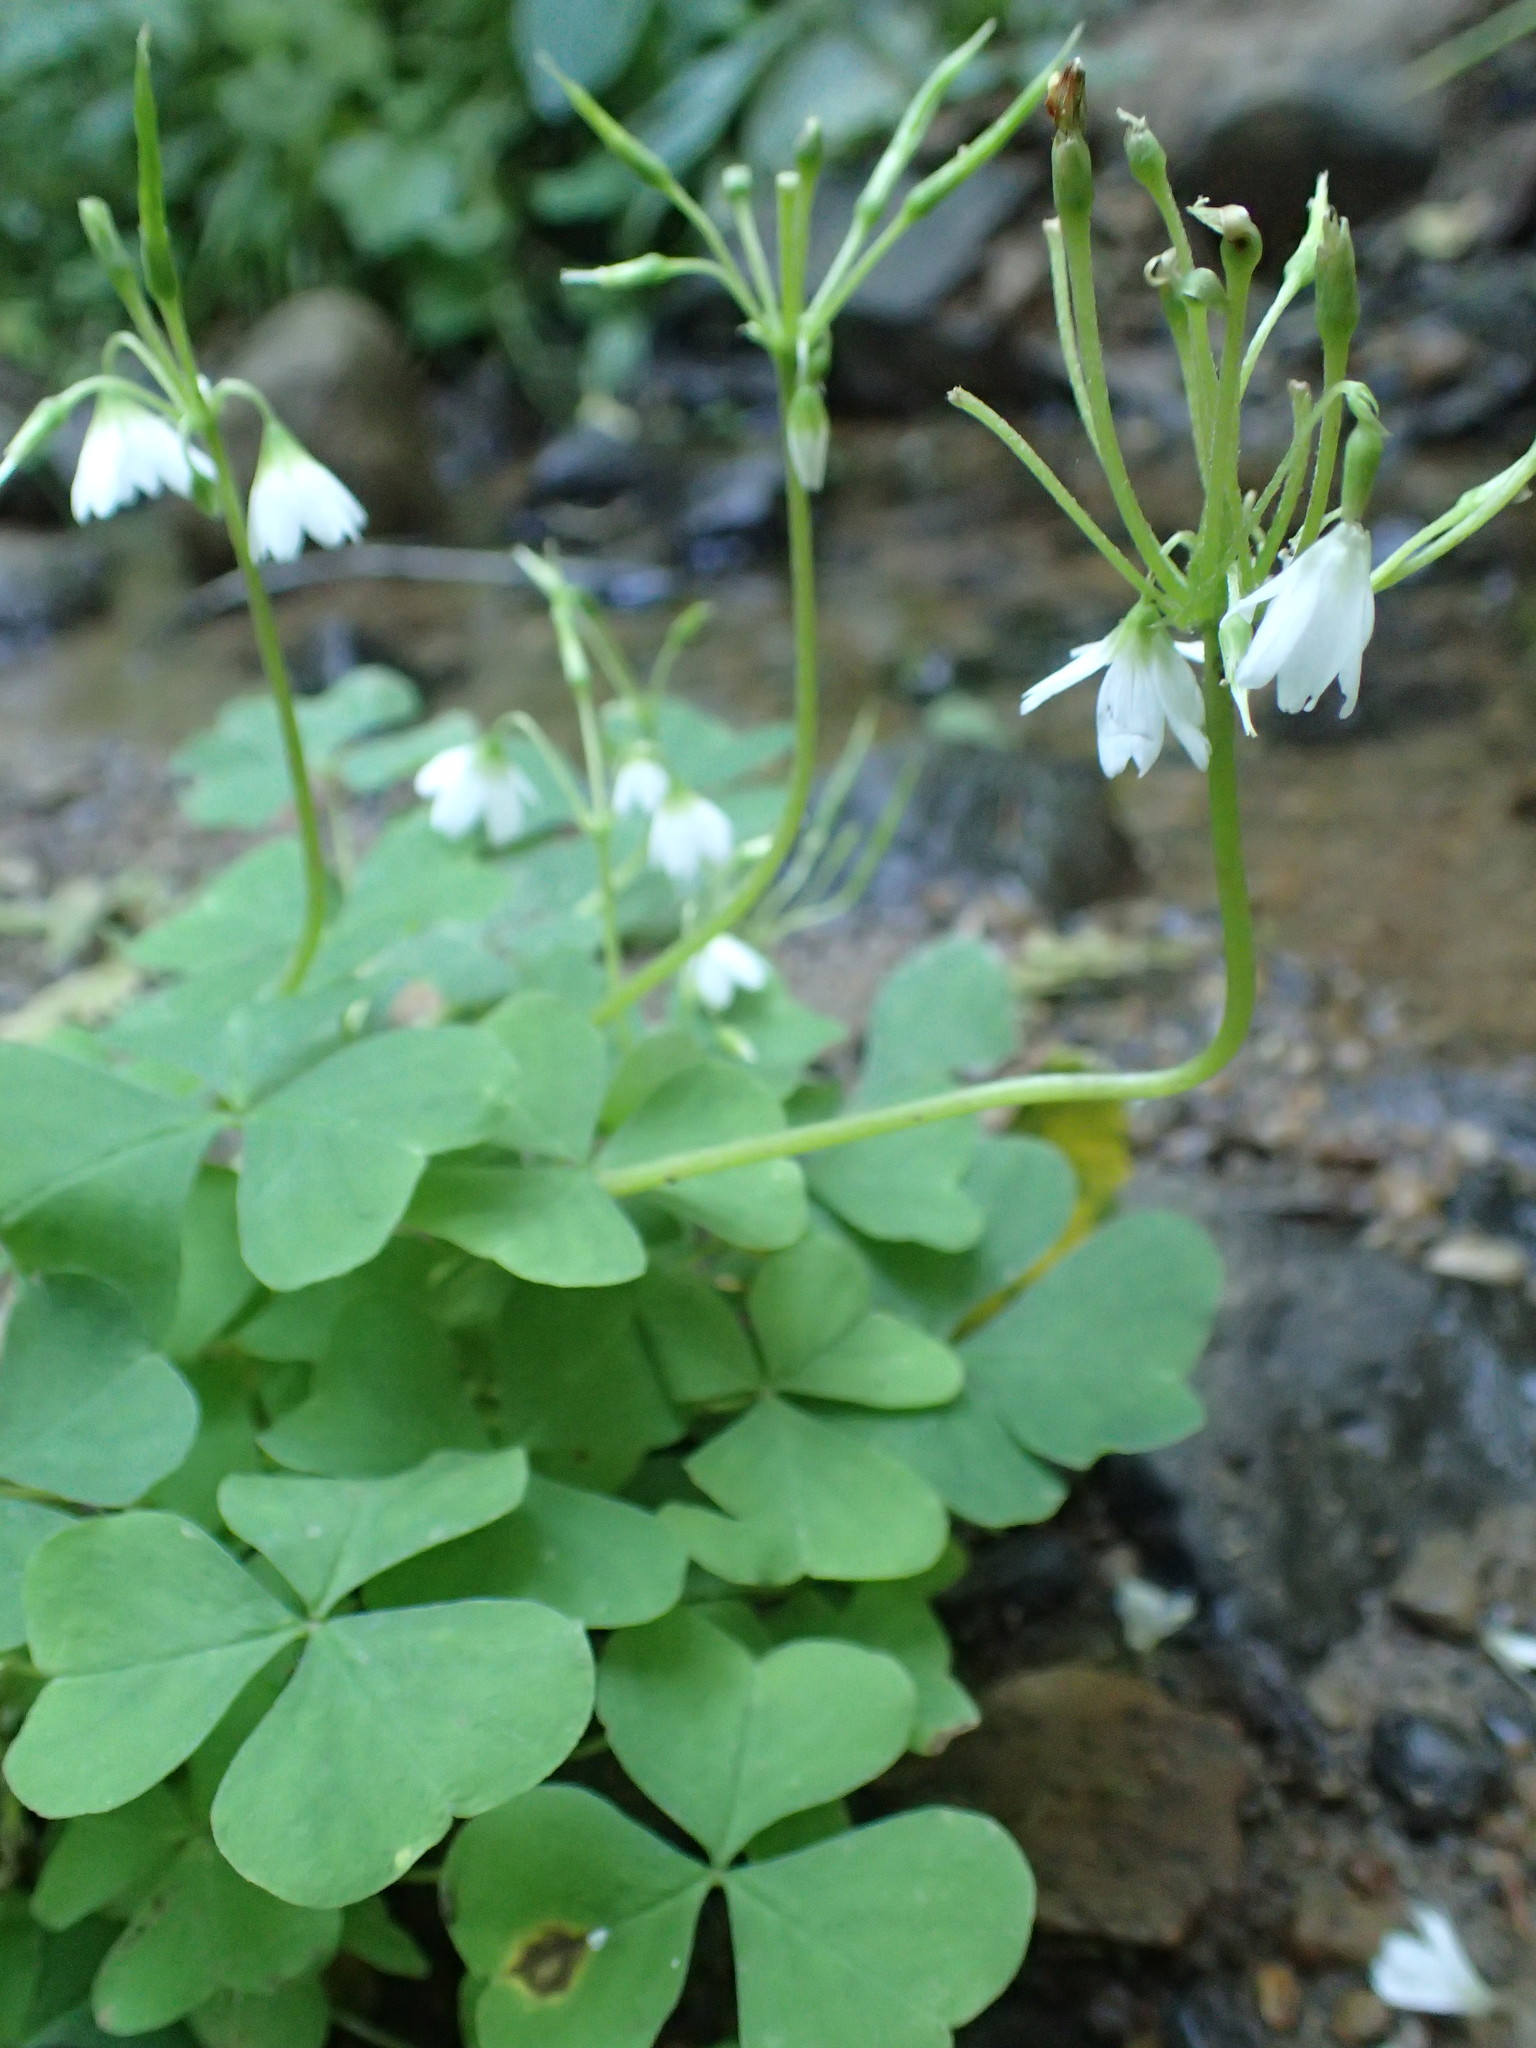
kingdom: Plantae
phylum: Tracheophyta
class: Magnoliopsida
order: Oxalidales
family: Oxalidaceae
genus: Oxalis
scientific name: Oxalis trilliifolia
